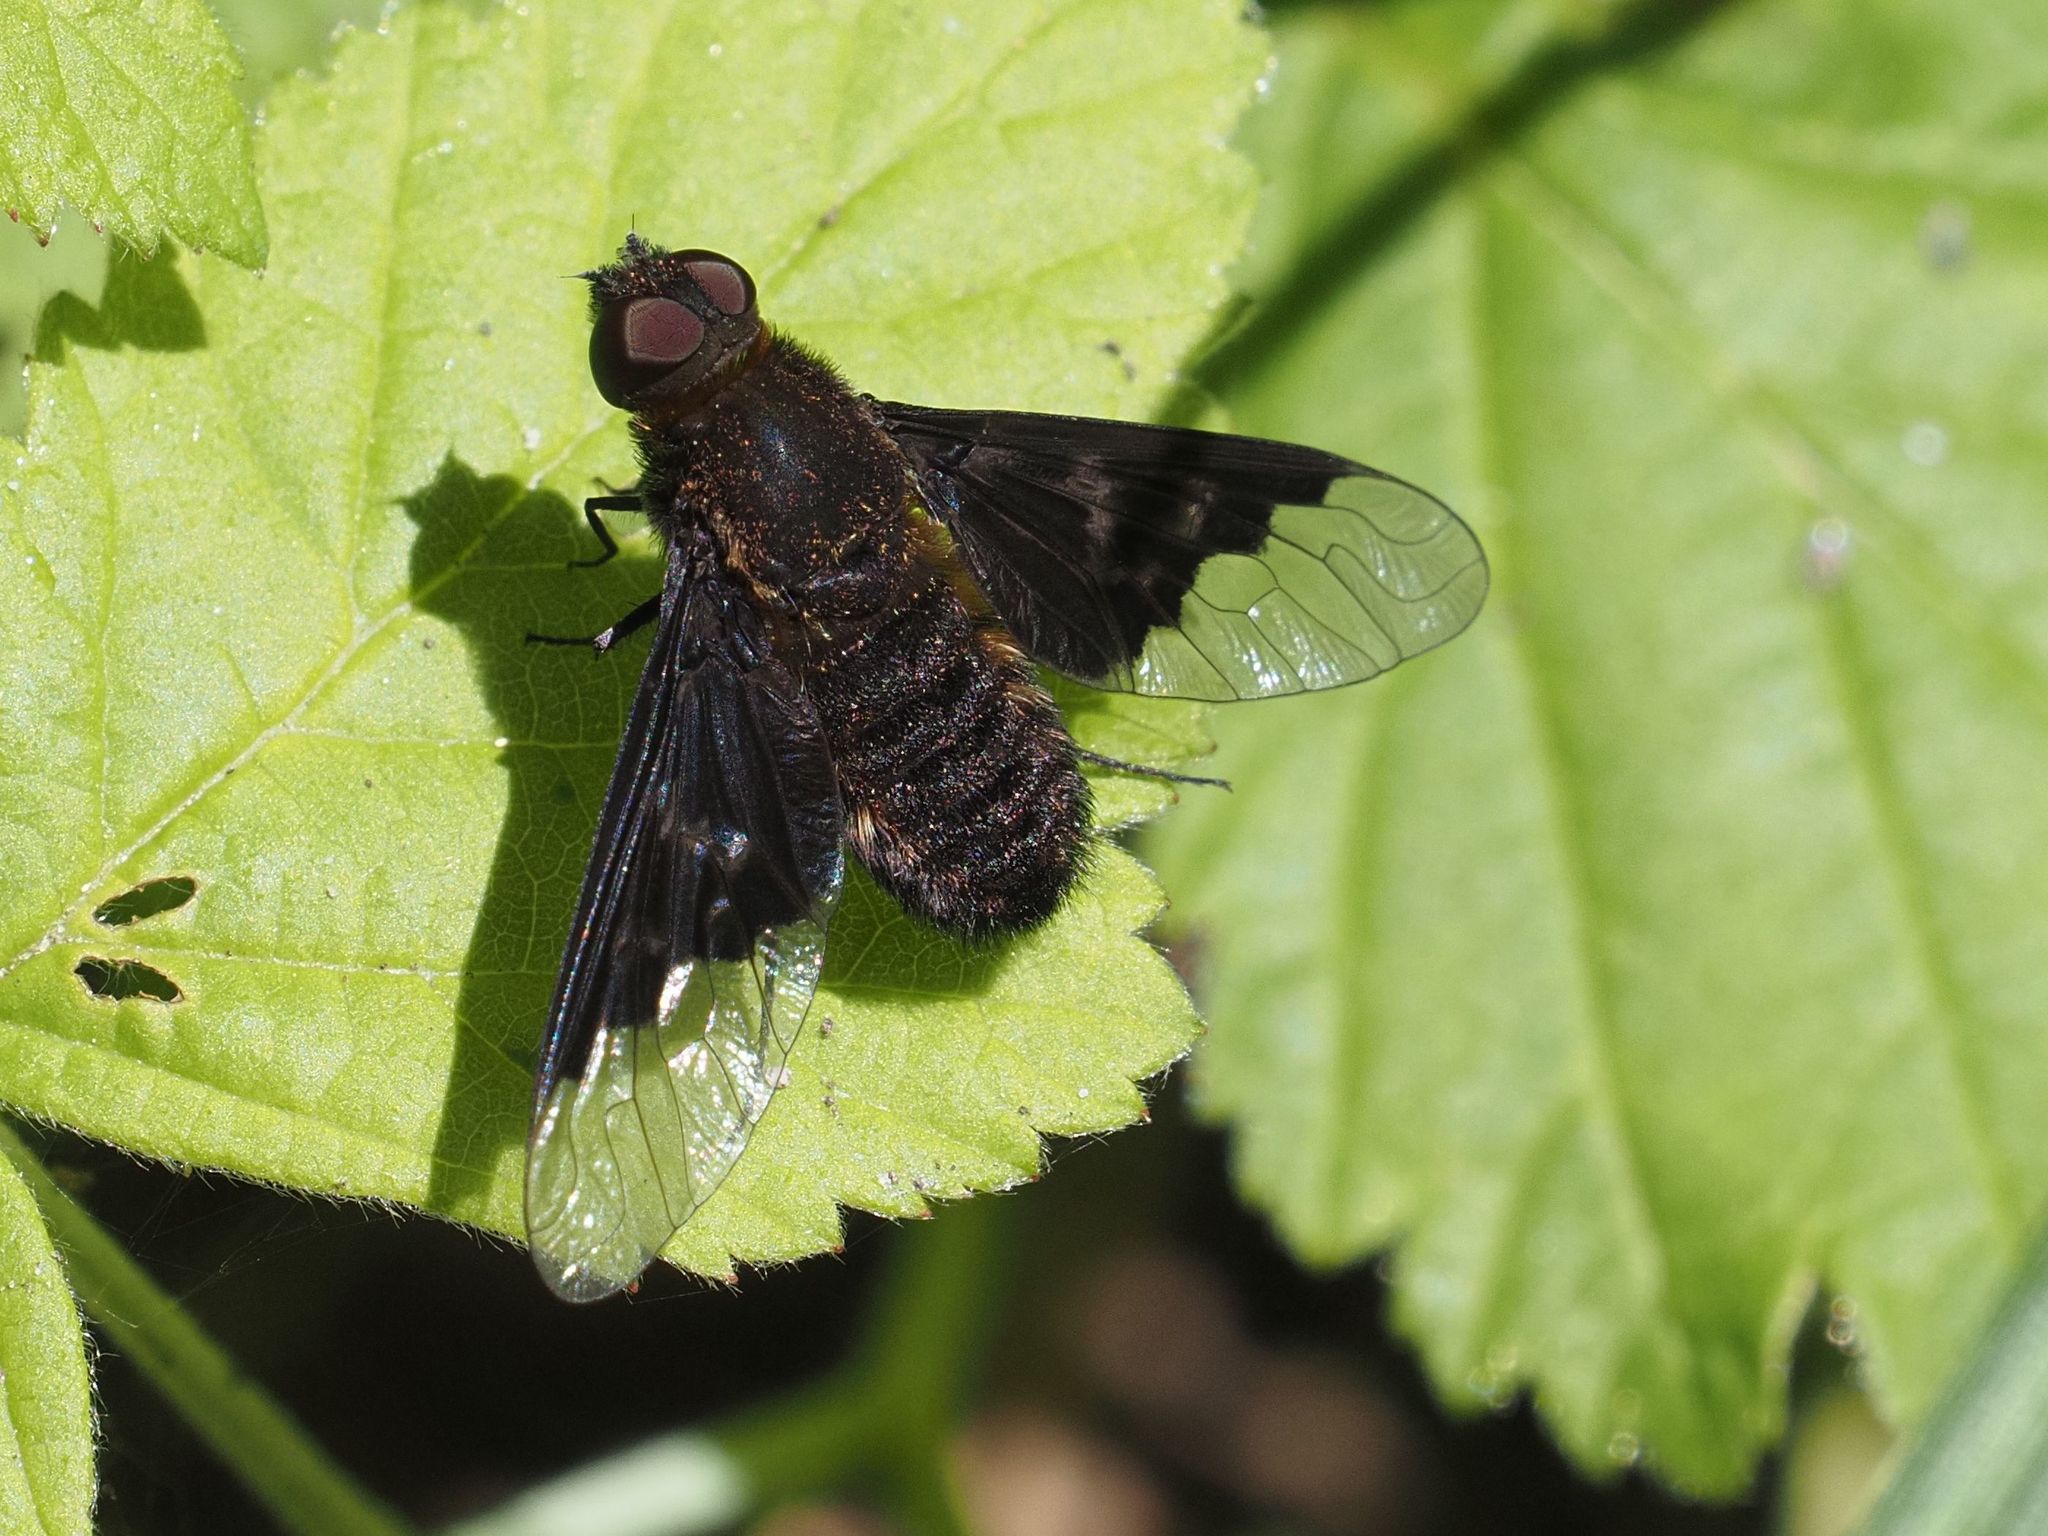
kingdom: Animalia
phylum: Arthropoda
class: Insecta
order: Diptera
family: Bombyliidae
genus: Hemipenthes
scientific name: Hemipenthes morio
